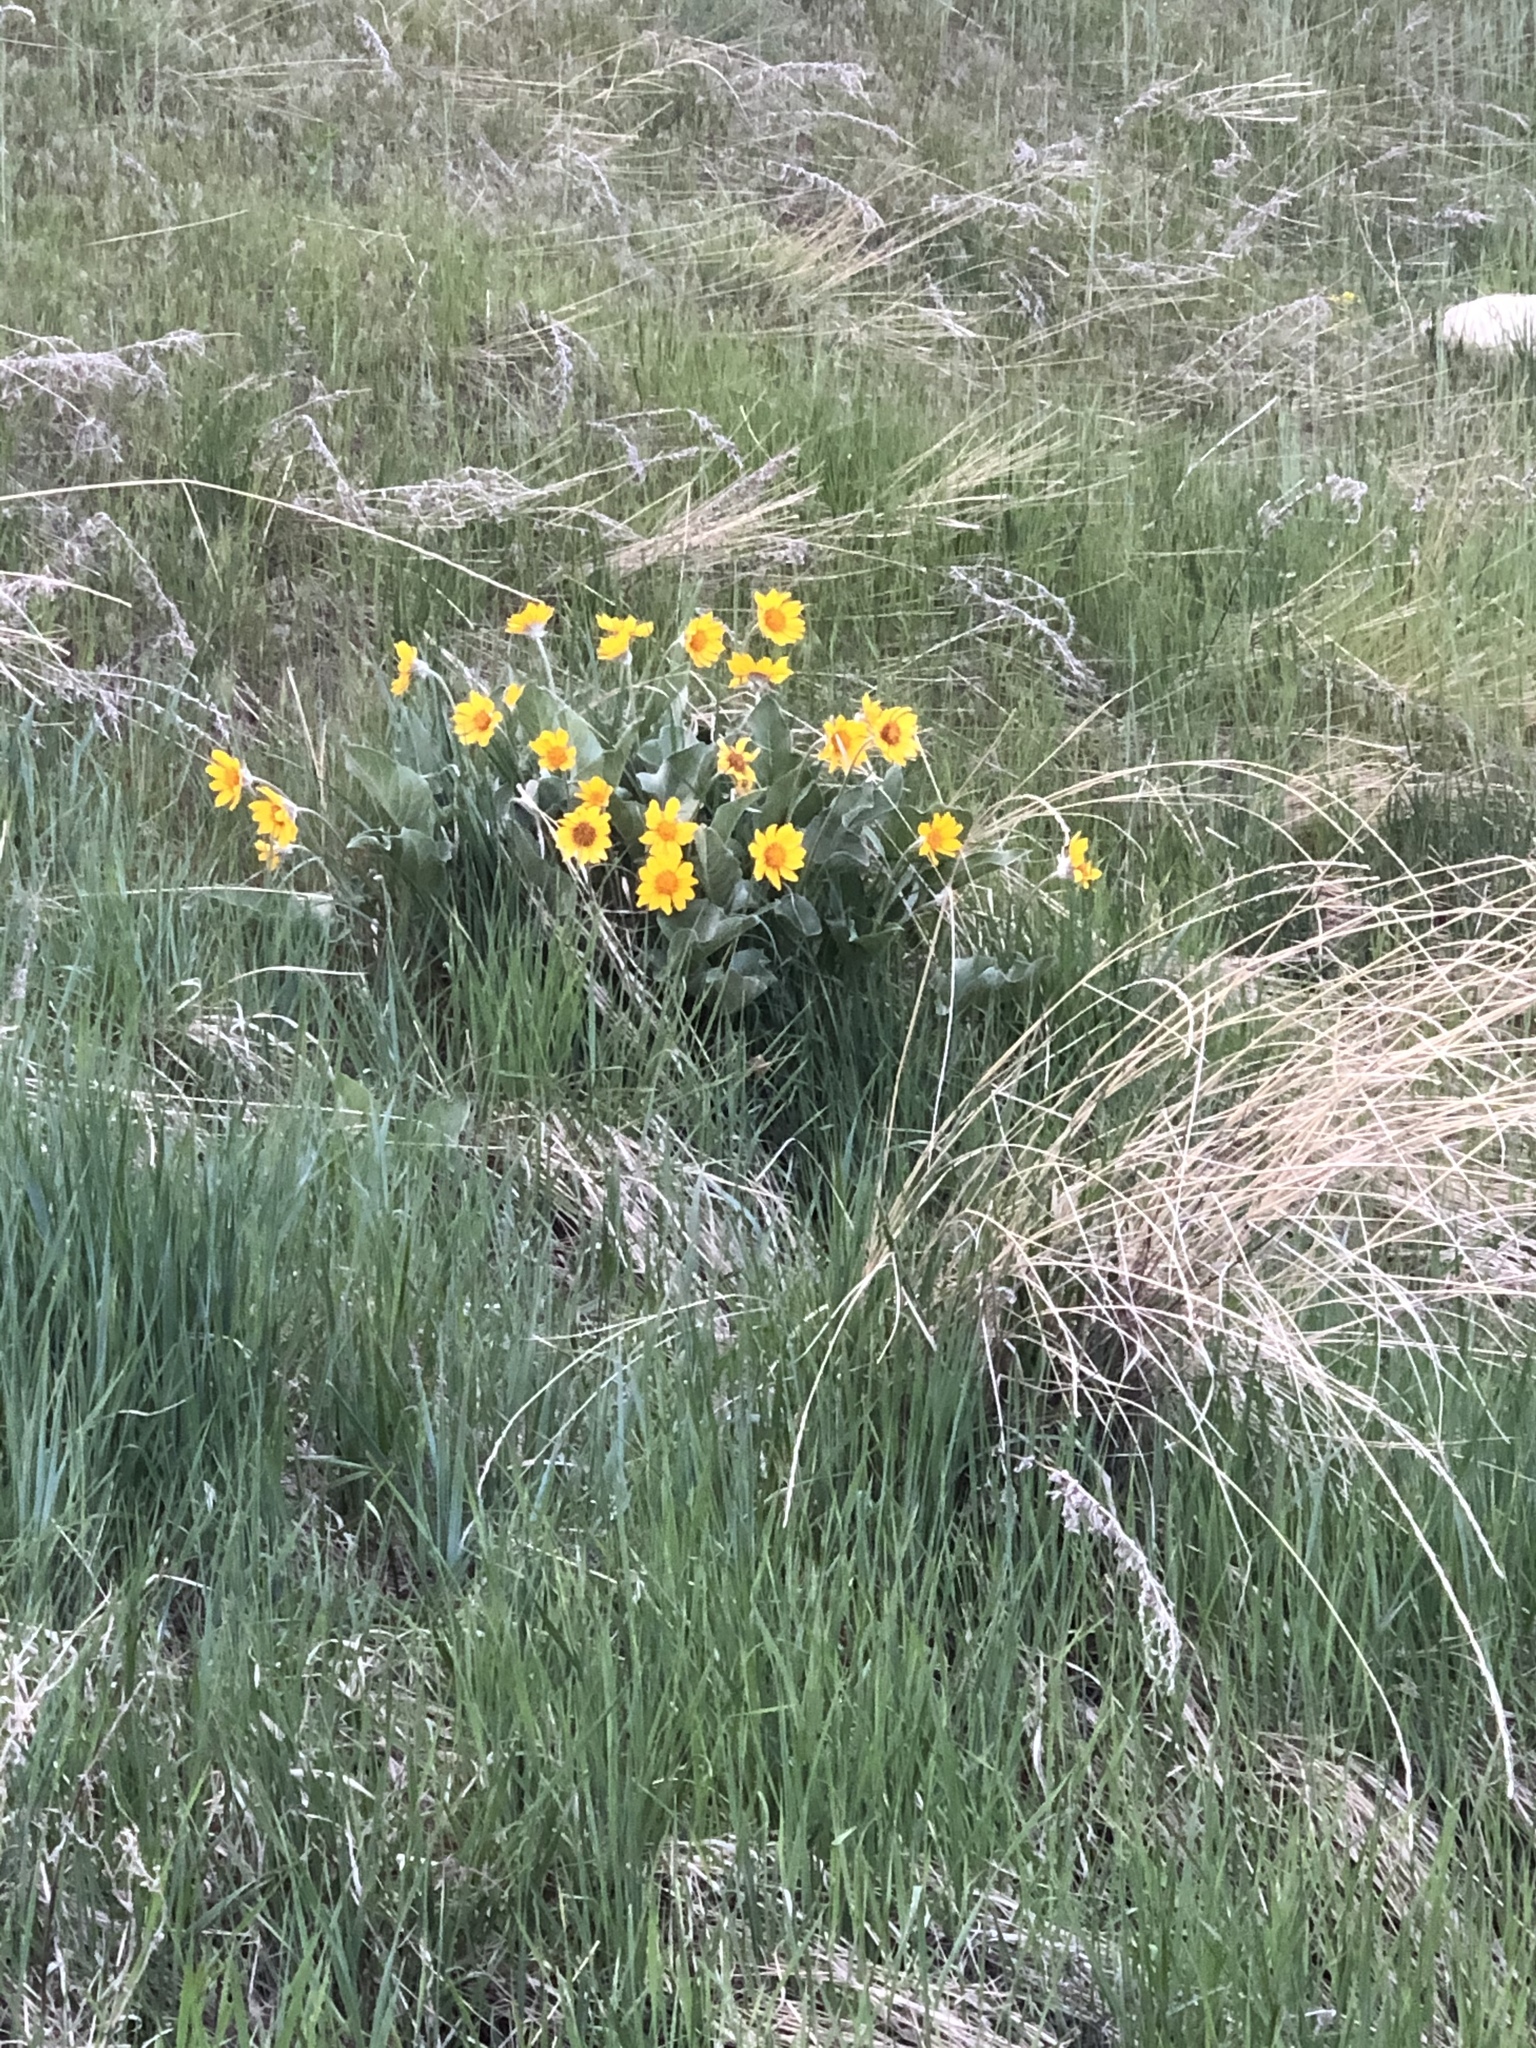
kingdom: Plantae
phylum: Tracheophyta
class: Magnoliopsida
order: Asterales
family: Asteraceae
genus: Wyethia
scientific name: Wyethia sagittata
